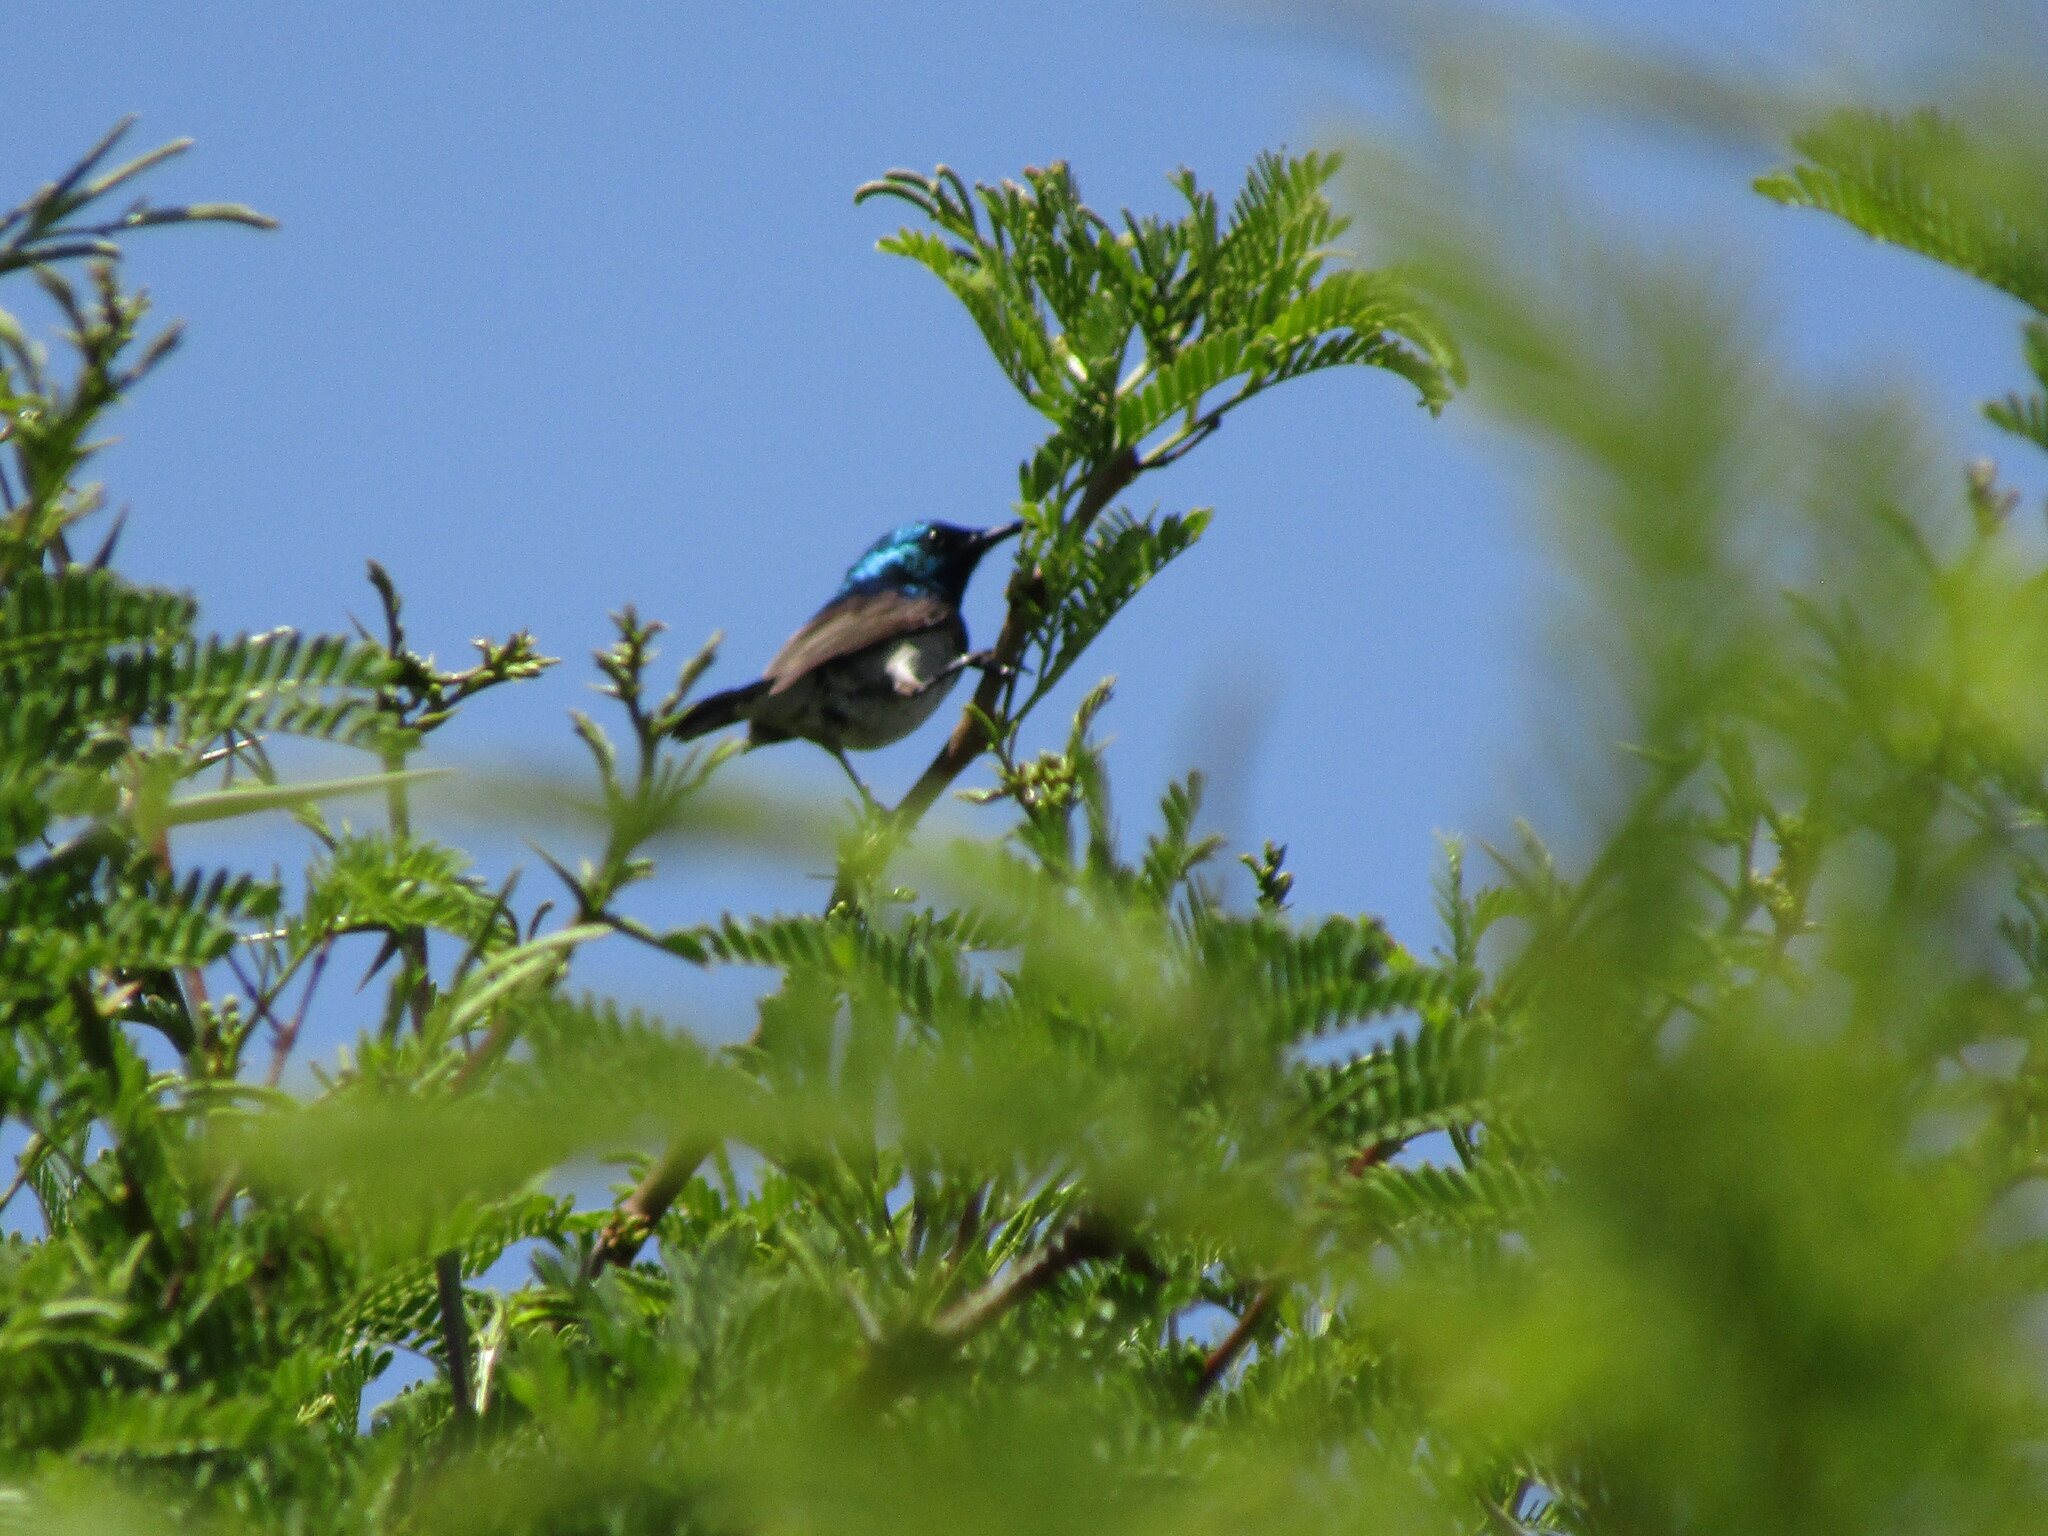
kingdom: Animalia
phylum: Chordata
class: Aves
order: Passeriformes
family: Nectariniidae
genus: Cinnyris
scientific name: Cinnyris talatala
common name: White-bellied sunbird
